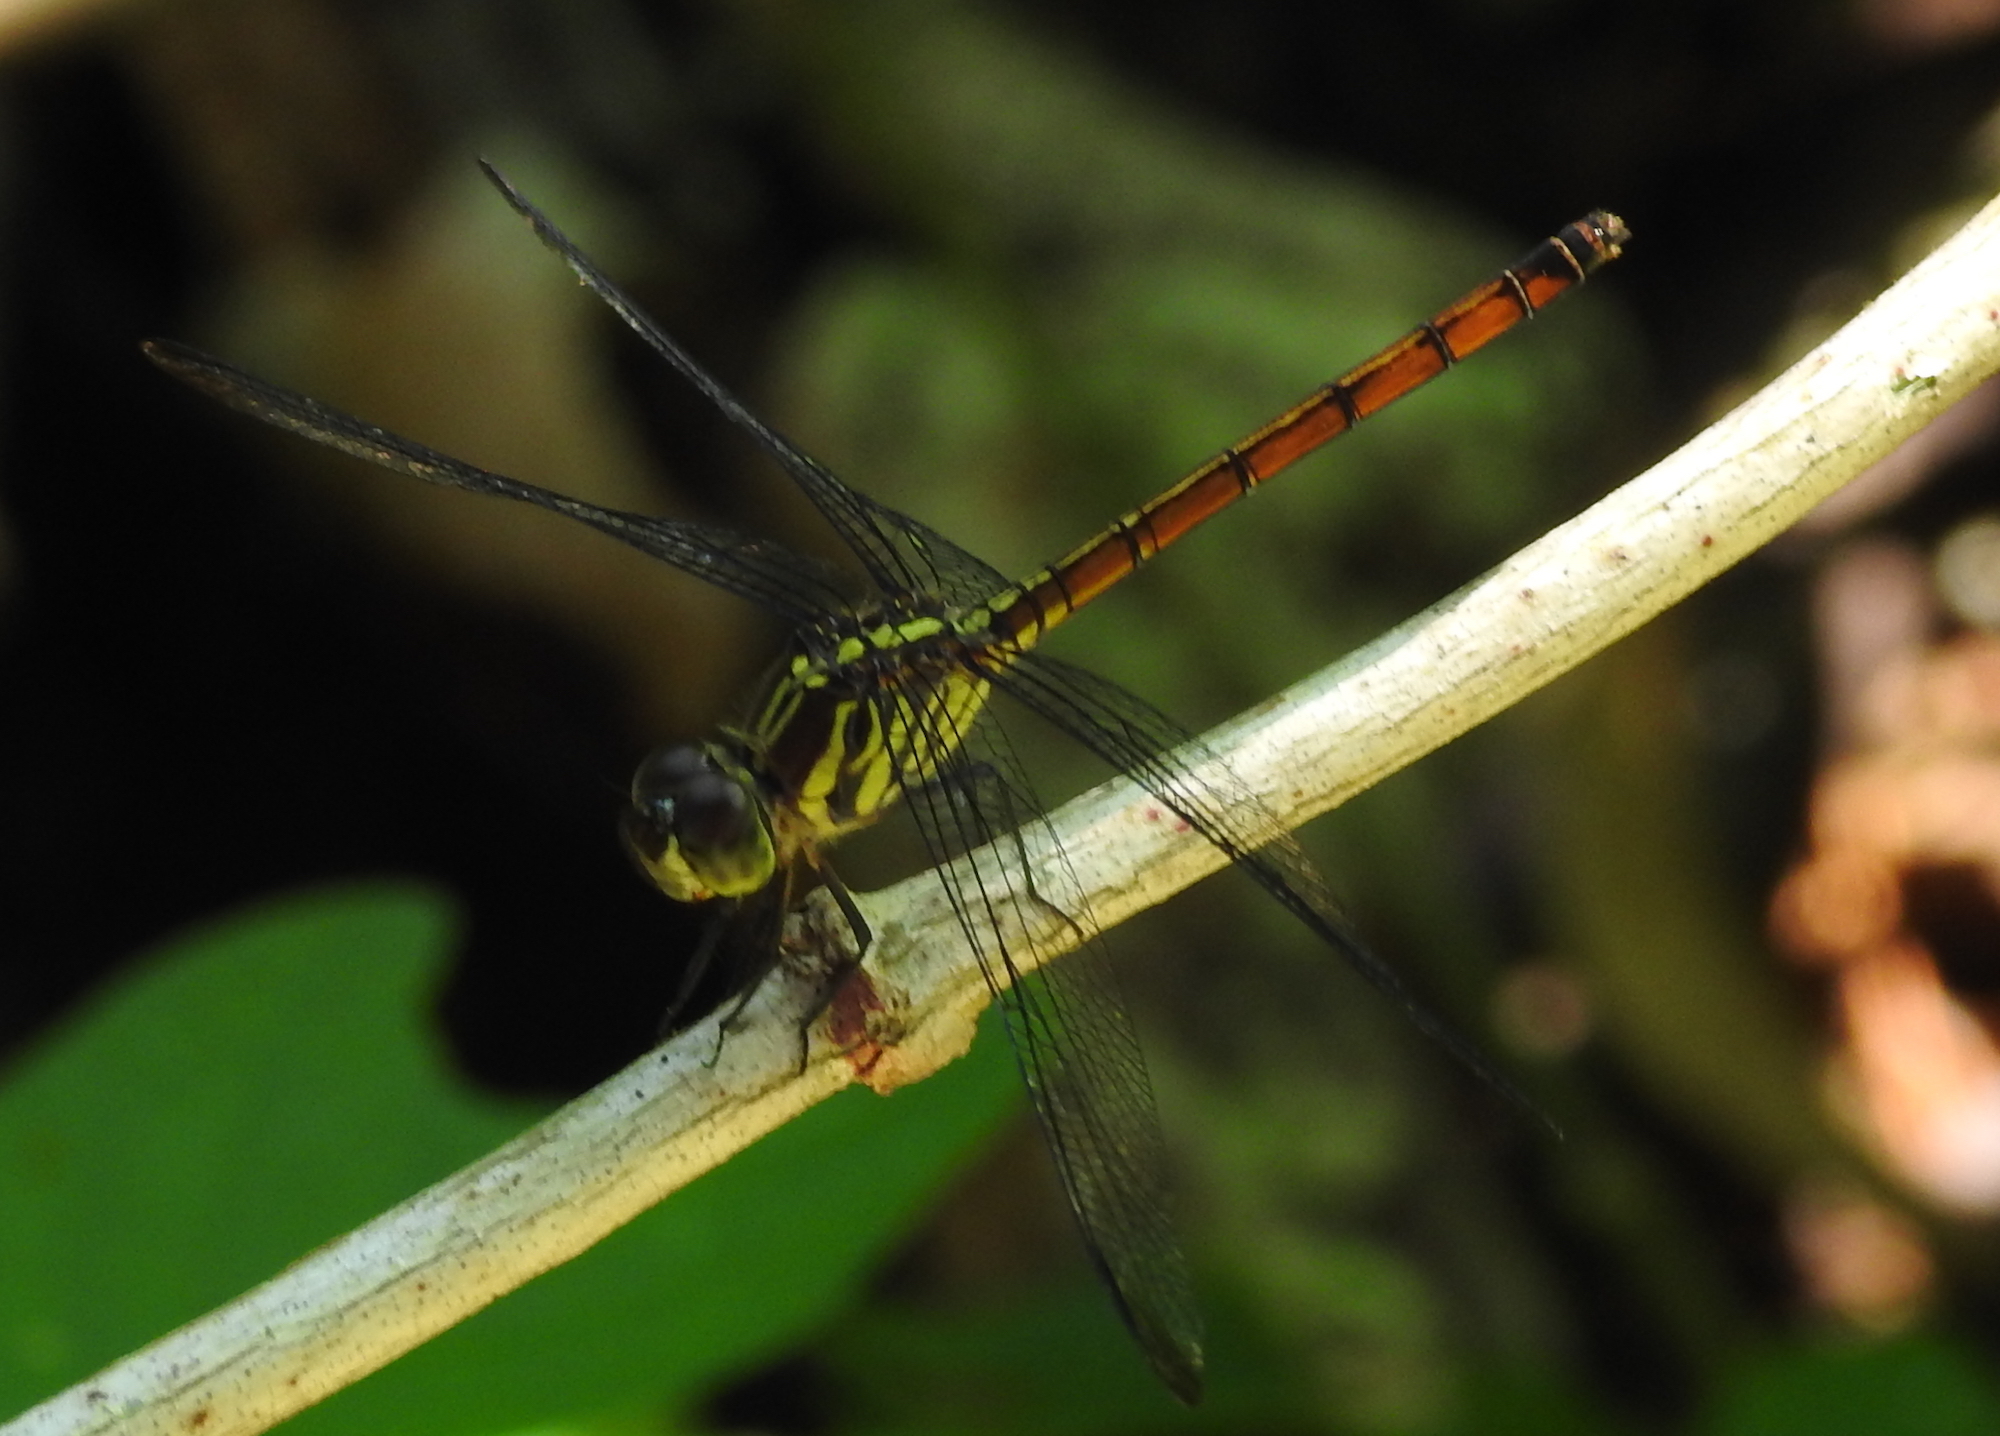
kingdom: Animalia
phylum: Arthropoda
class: Insecta
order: Odonata
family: Libellulidae
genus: Lathrecista
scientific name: Lathrecista asiatica
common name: Scarlet grenadier
